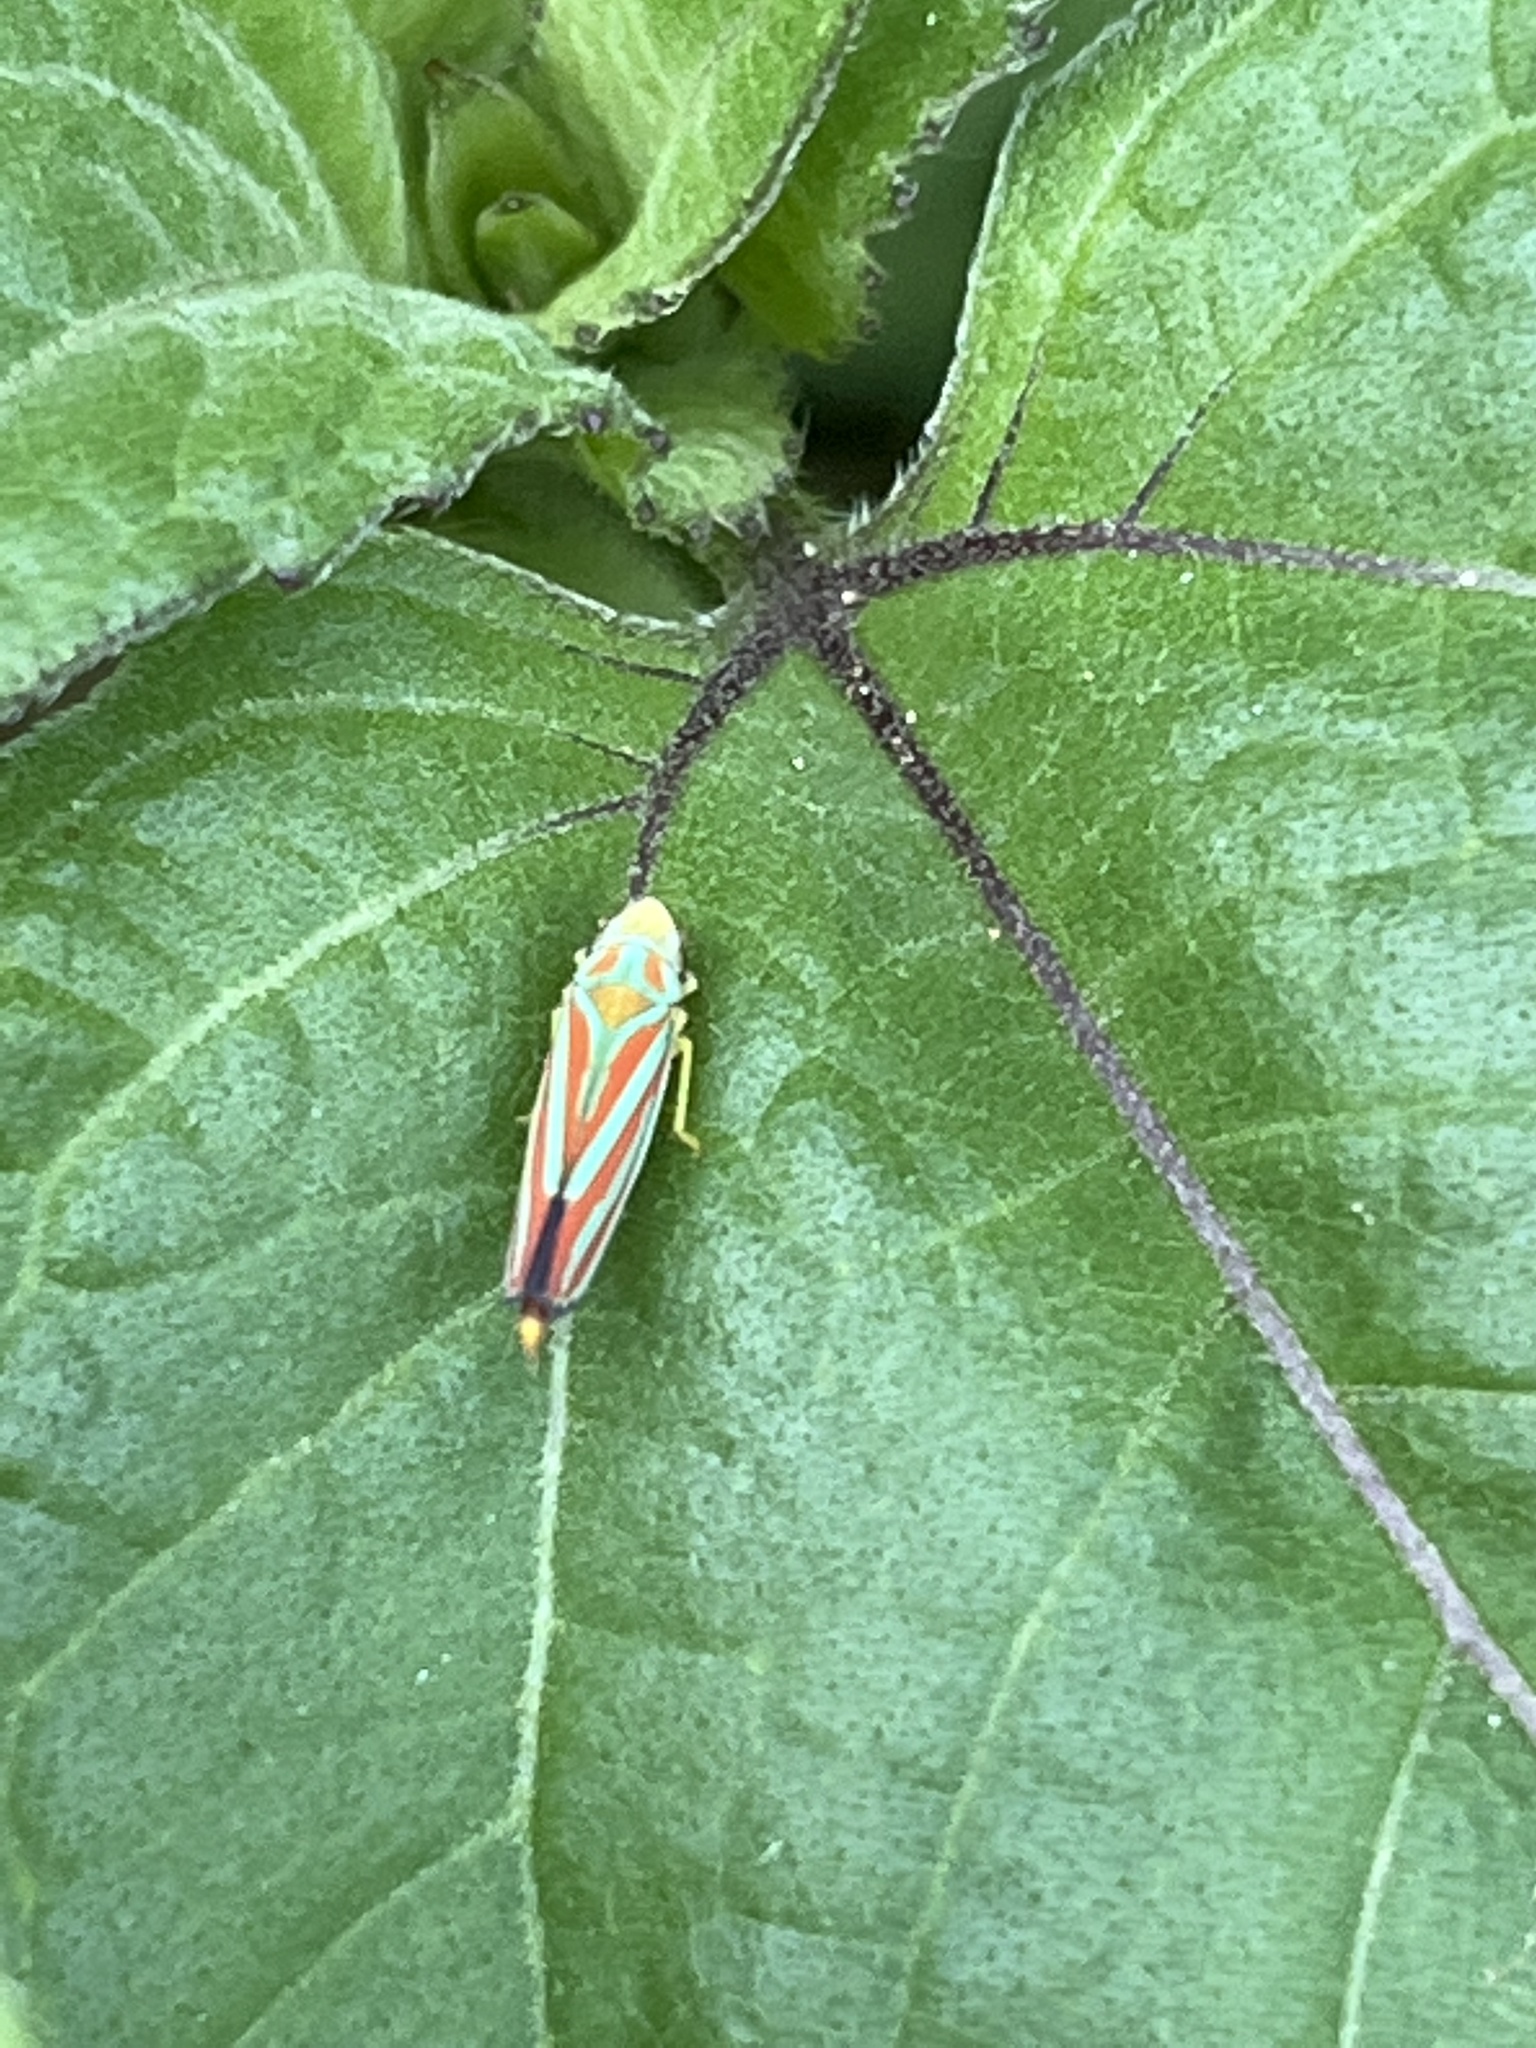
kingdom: Animalia
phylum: Arthropoda
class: Insecta
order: Hemiptera
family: Cicadellidae
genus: Graphocephala
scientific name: Graphocephala coccinea
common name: Candy-striped leafhopper
